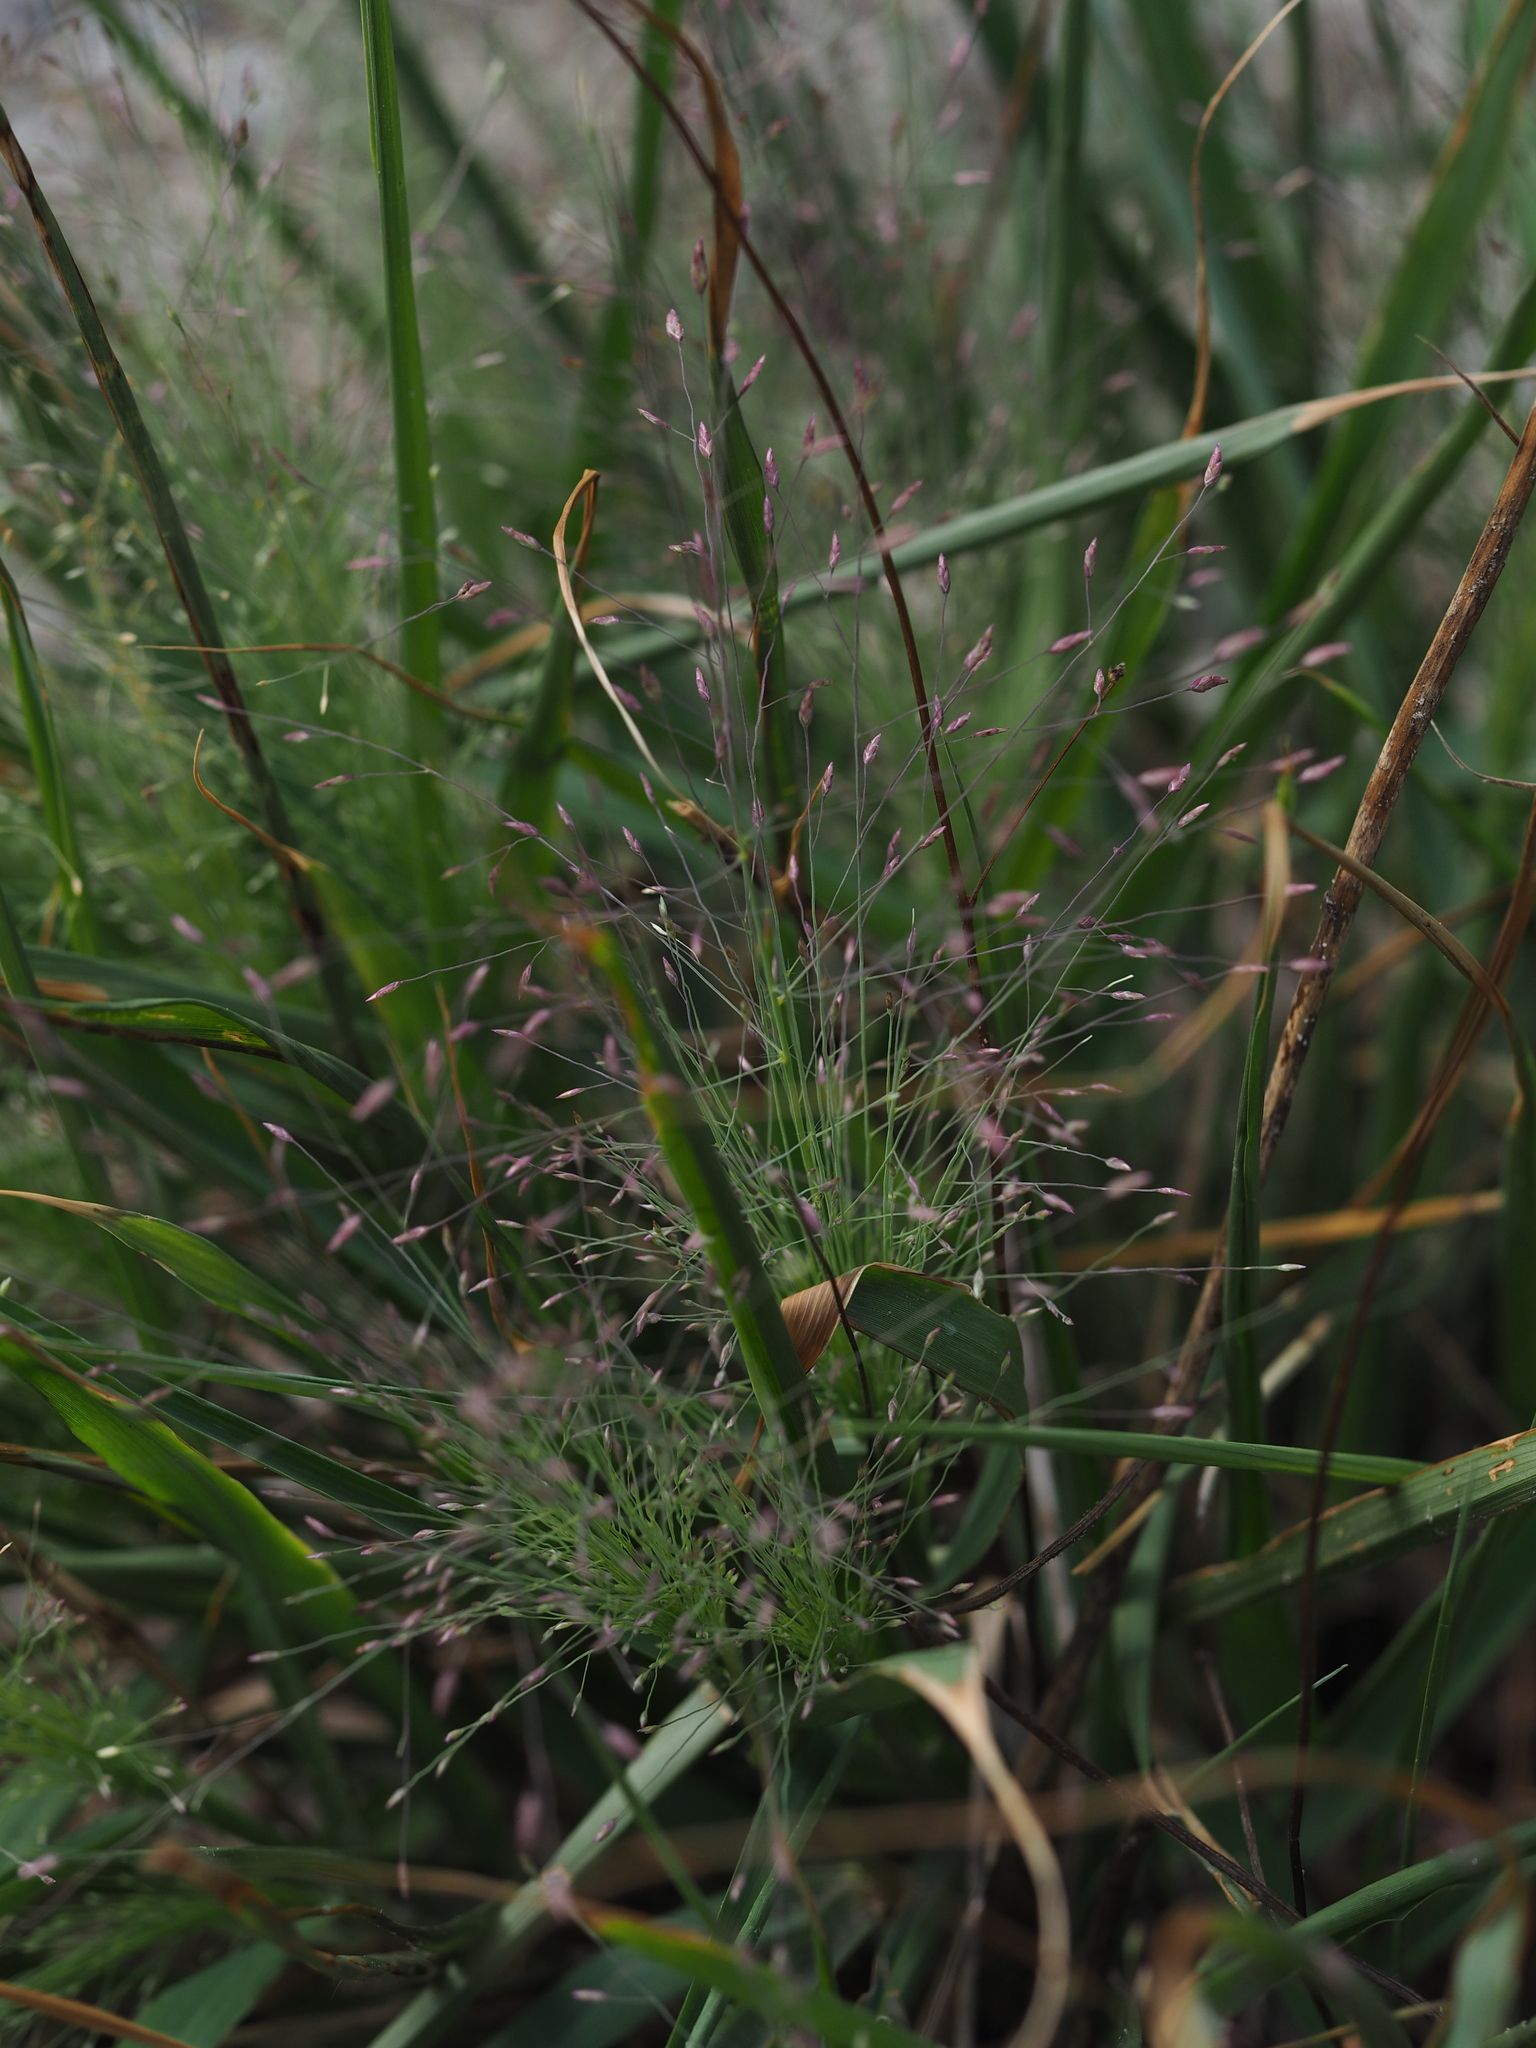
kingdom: Plantae
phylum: Tracheophyta
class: Liliopsida
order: Poales
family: Poaceae
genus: Panicum
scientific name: Panicum capillare
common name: Witch-grass
